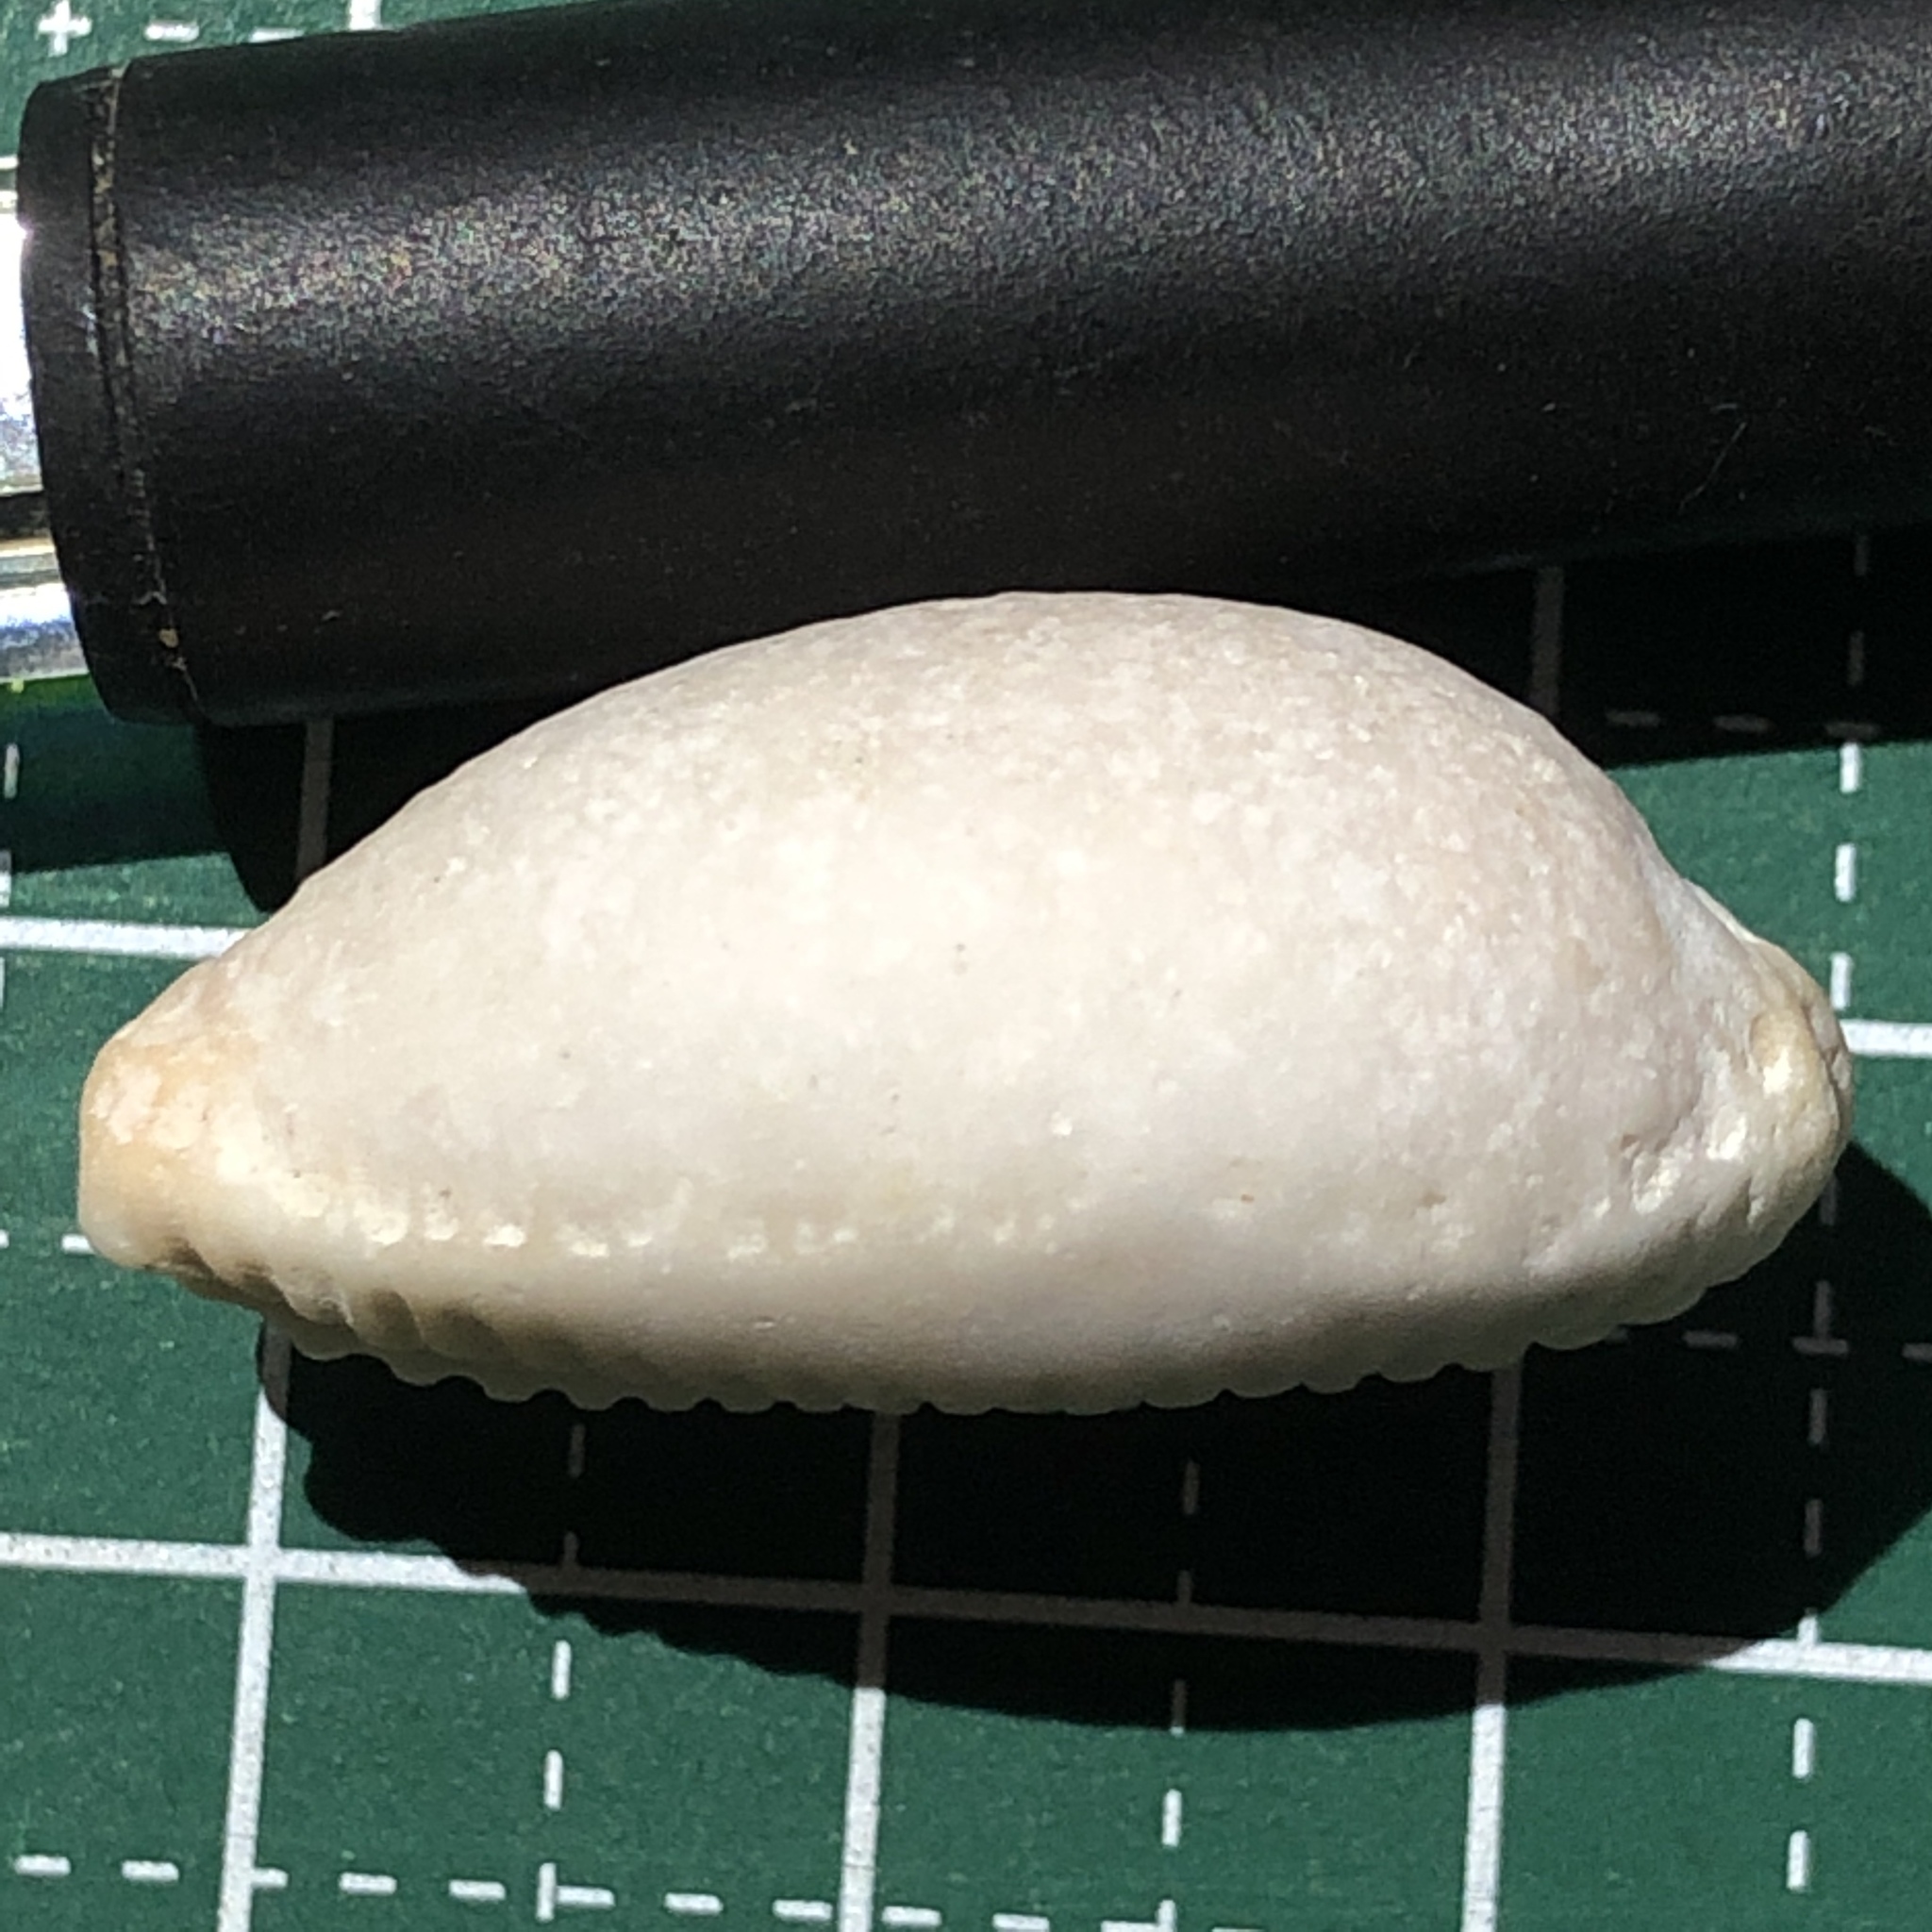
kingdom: Animalia
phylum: Mollusca
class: Gastropoda
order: Littorinimorpha
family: Cypraeidae
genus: Staphylaea
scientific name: Staphylaea limacina
